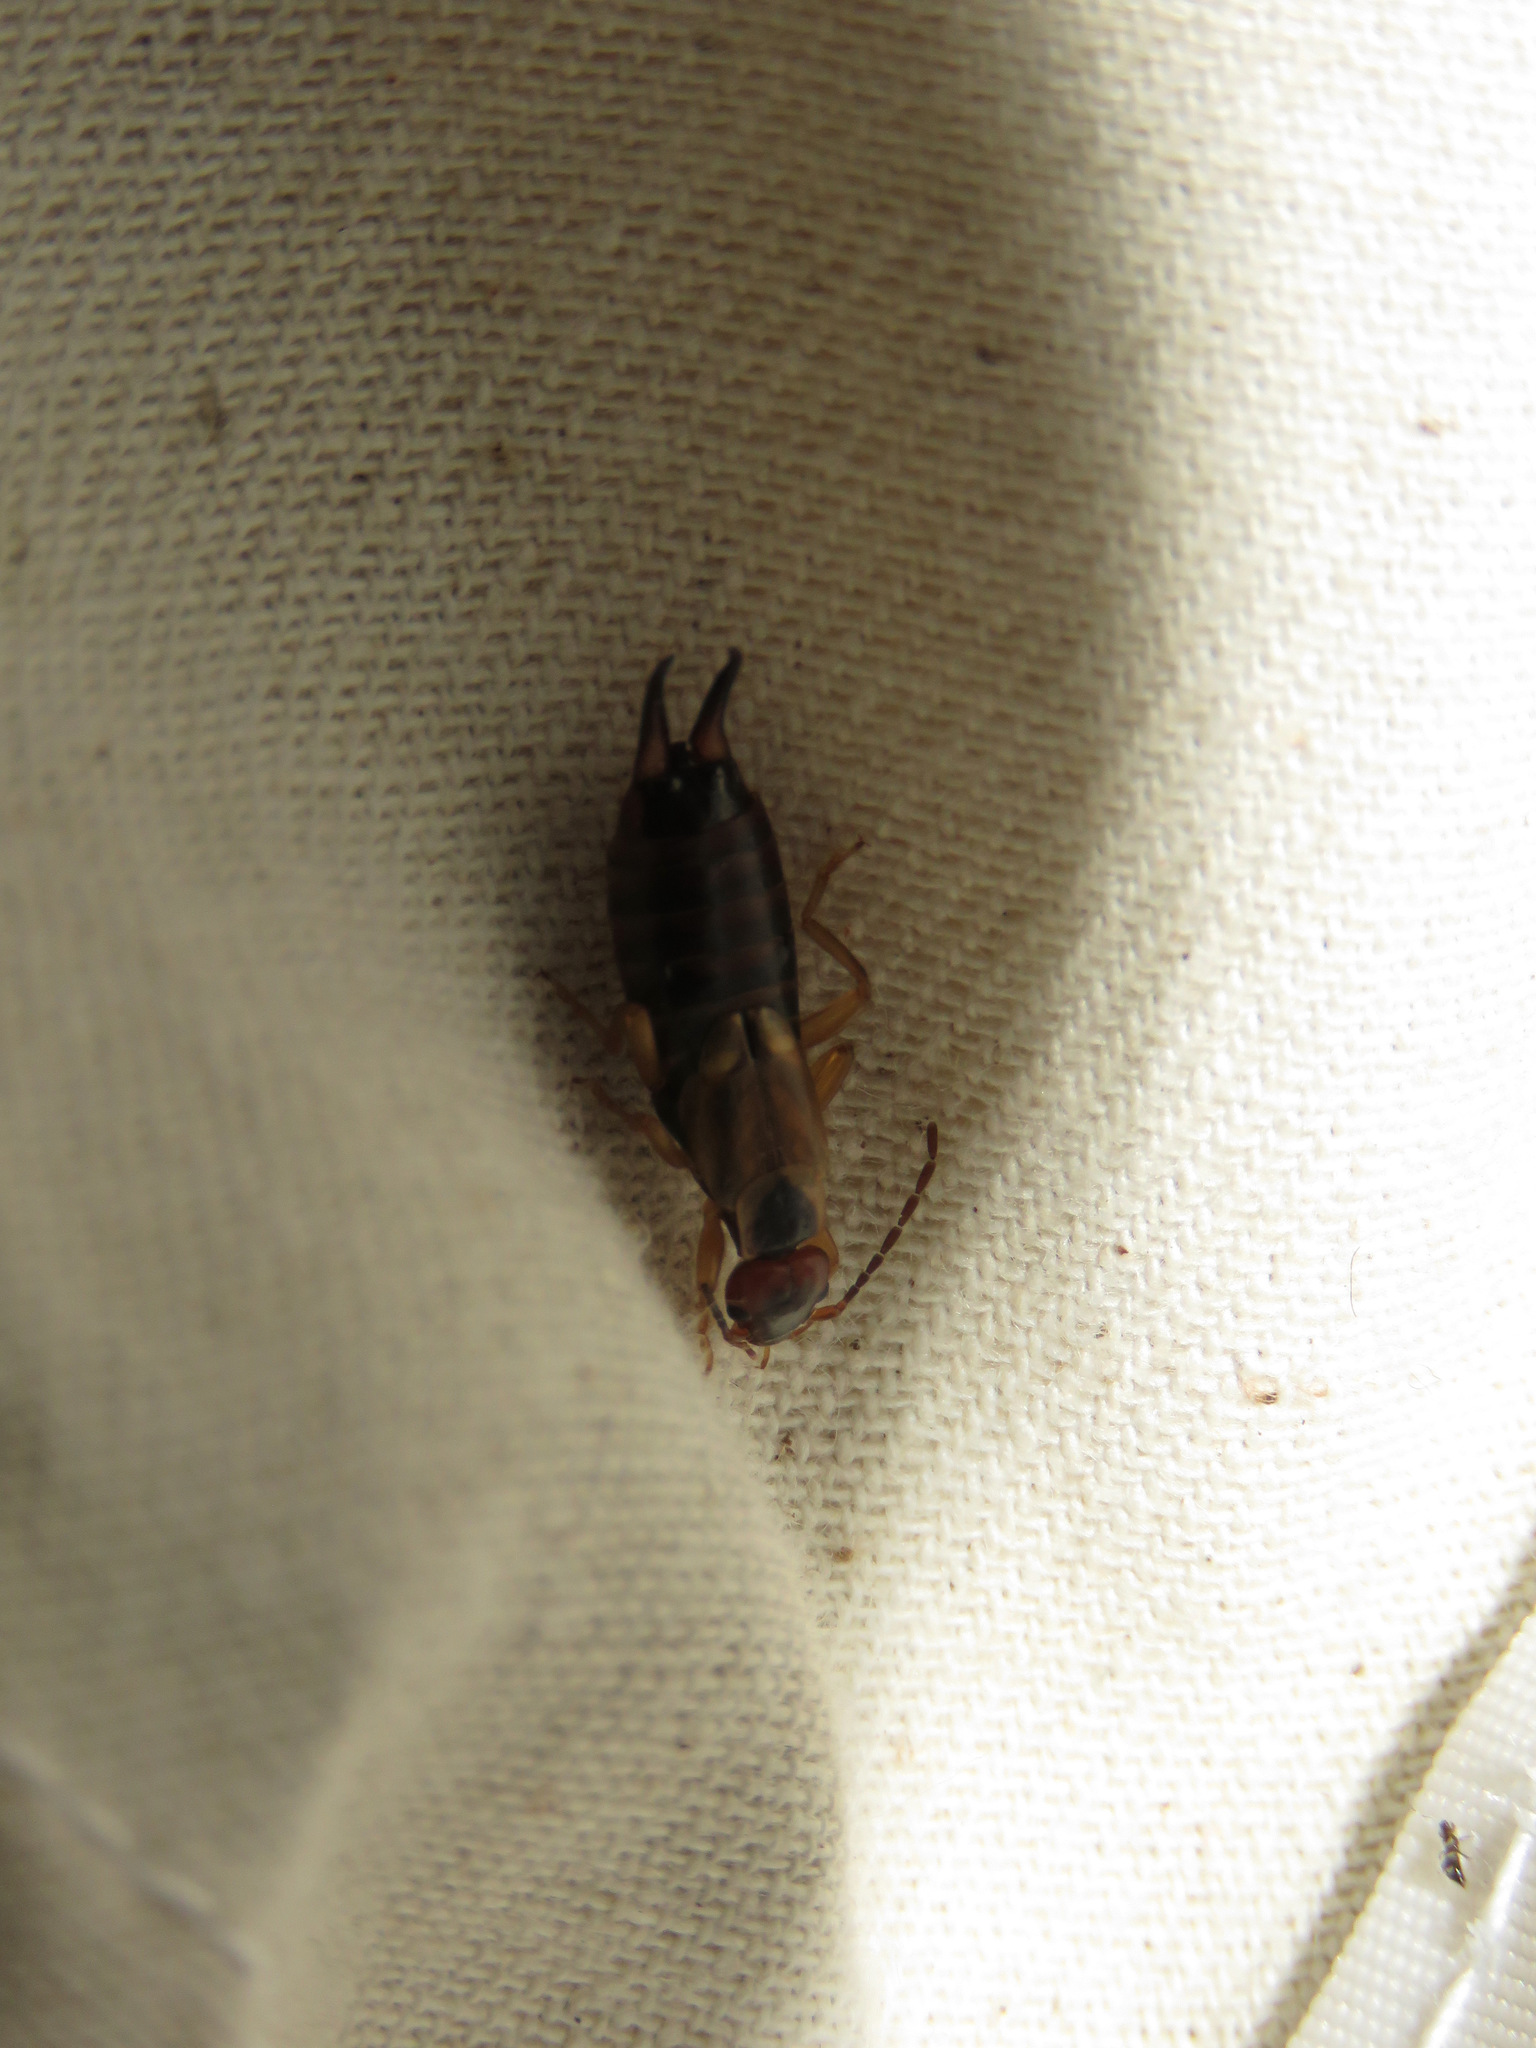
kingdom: Animalia
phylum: Arthropoda
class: Insecta
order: Dermaptera
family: Forficulidae
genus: Forficula
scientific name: Forficula
